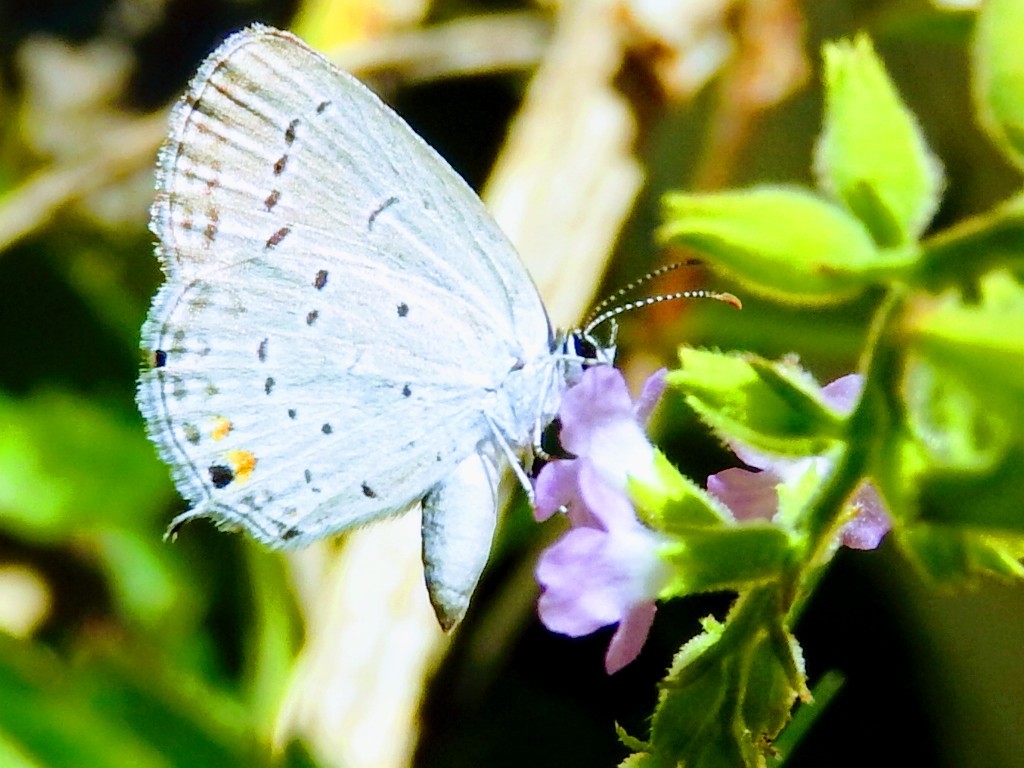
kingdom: Animalia
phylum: Arthropoda
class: Insecta
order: Lepidoptera
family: Lycaenidae
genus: Elkalyce
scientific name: Elkalyce texana
